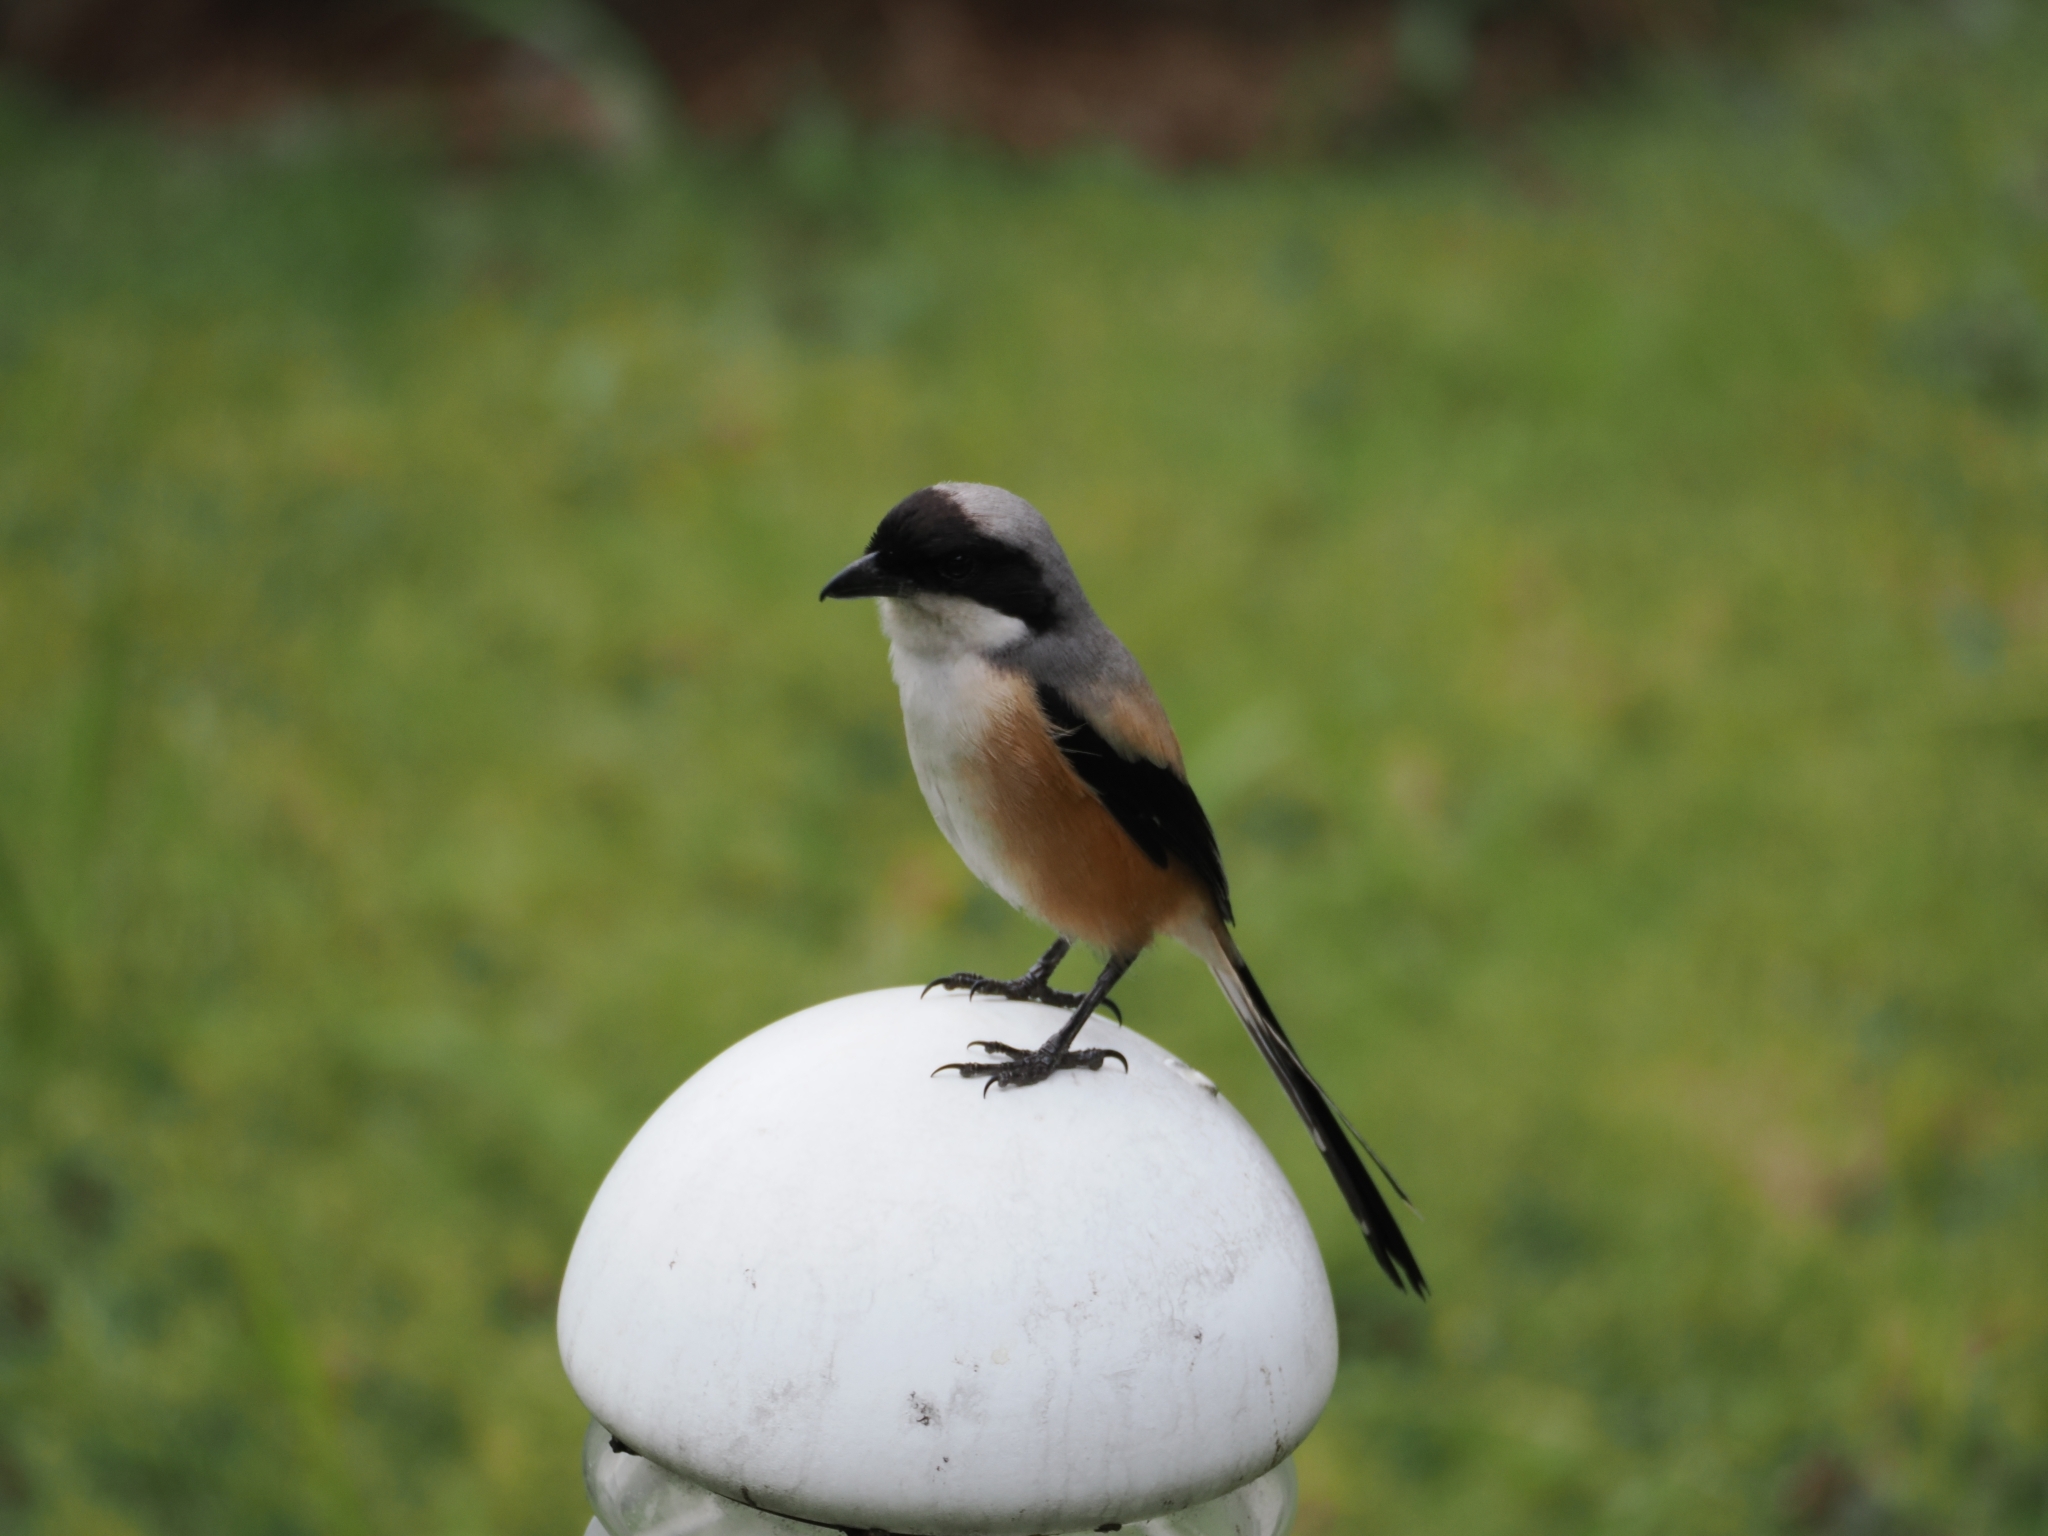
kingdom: Animalia
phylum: Chordata
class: Aves
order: Passeriformes
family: Laniidae
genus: Lanius
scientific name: Lanius schach
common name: Long-tailed shrike
